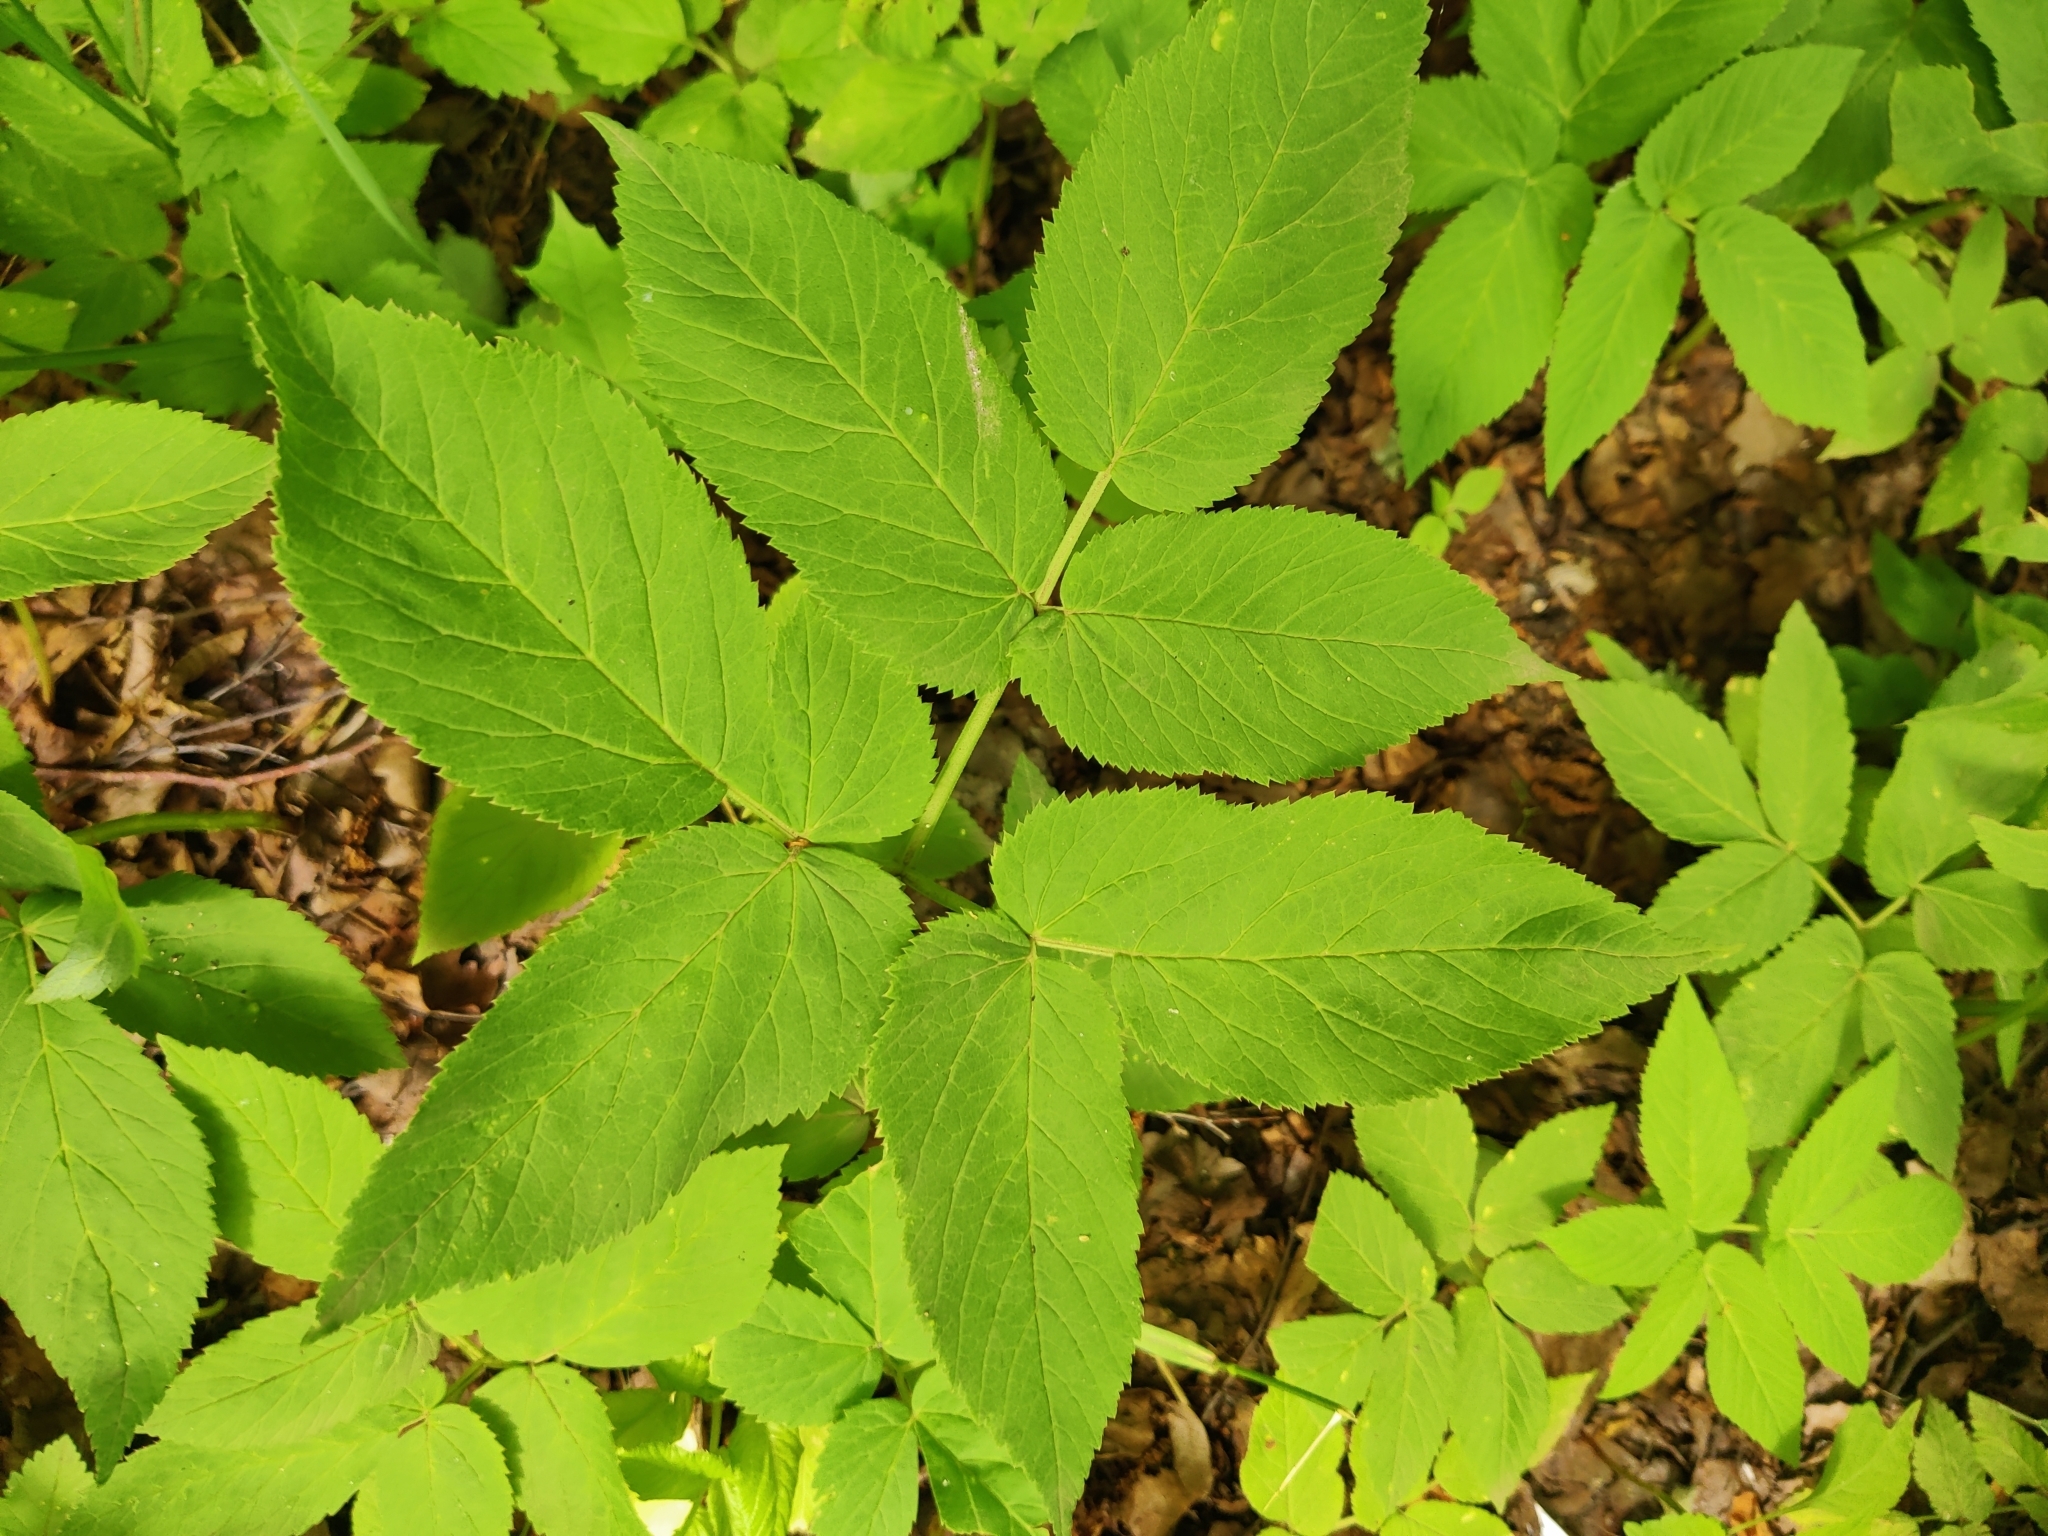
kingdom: Plantae
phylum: Tracheophyta
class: Magnoliopsida
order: Apiales
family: Apiaceae
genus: Aegopodium
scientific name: Aegopodium podagraria
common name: Ground-elder
